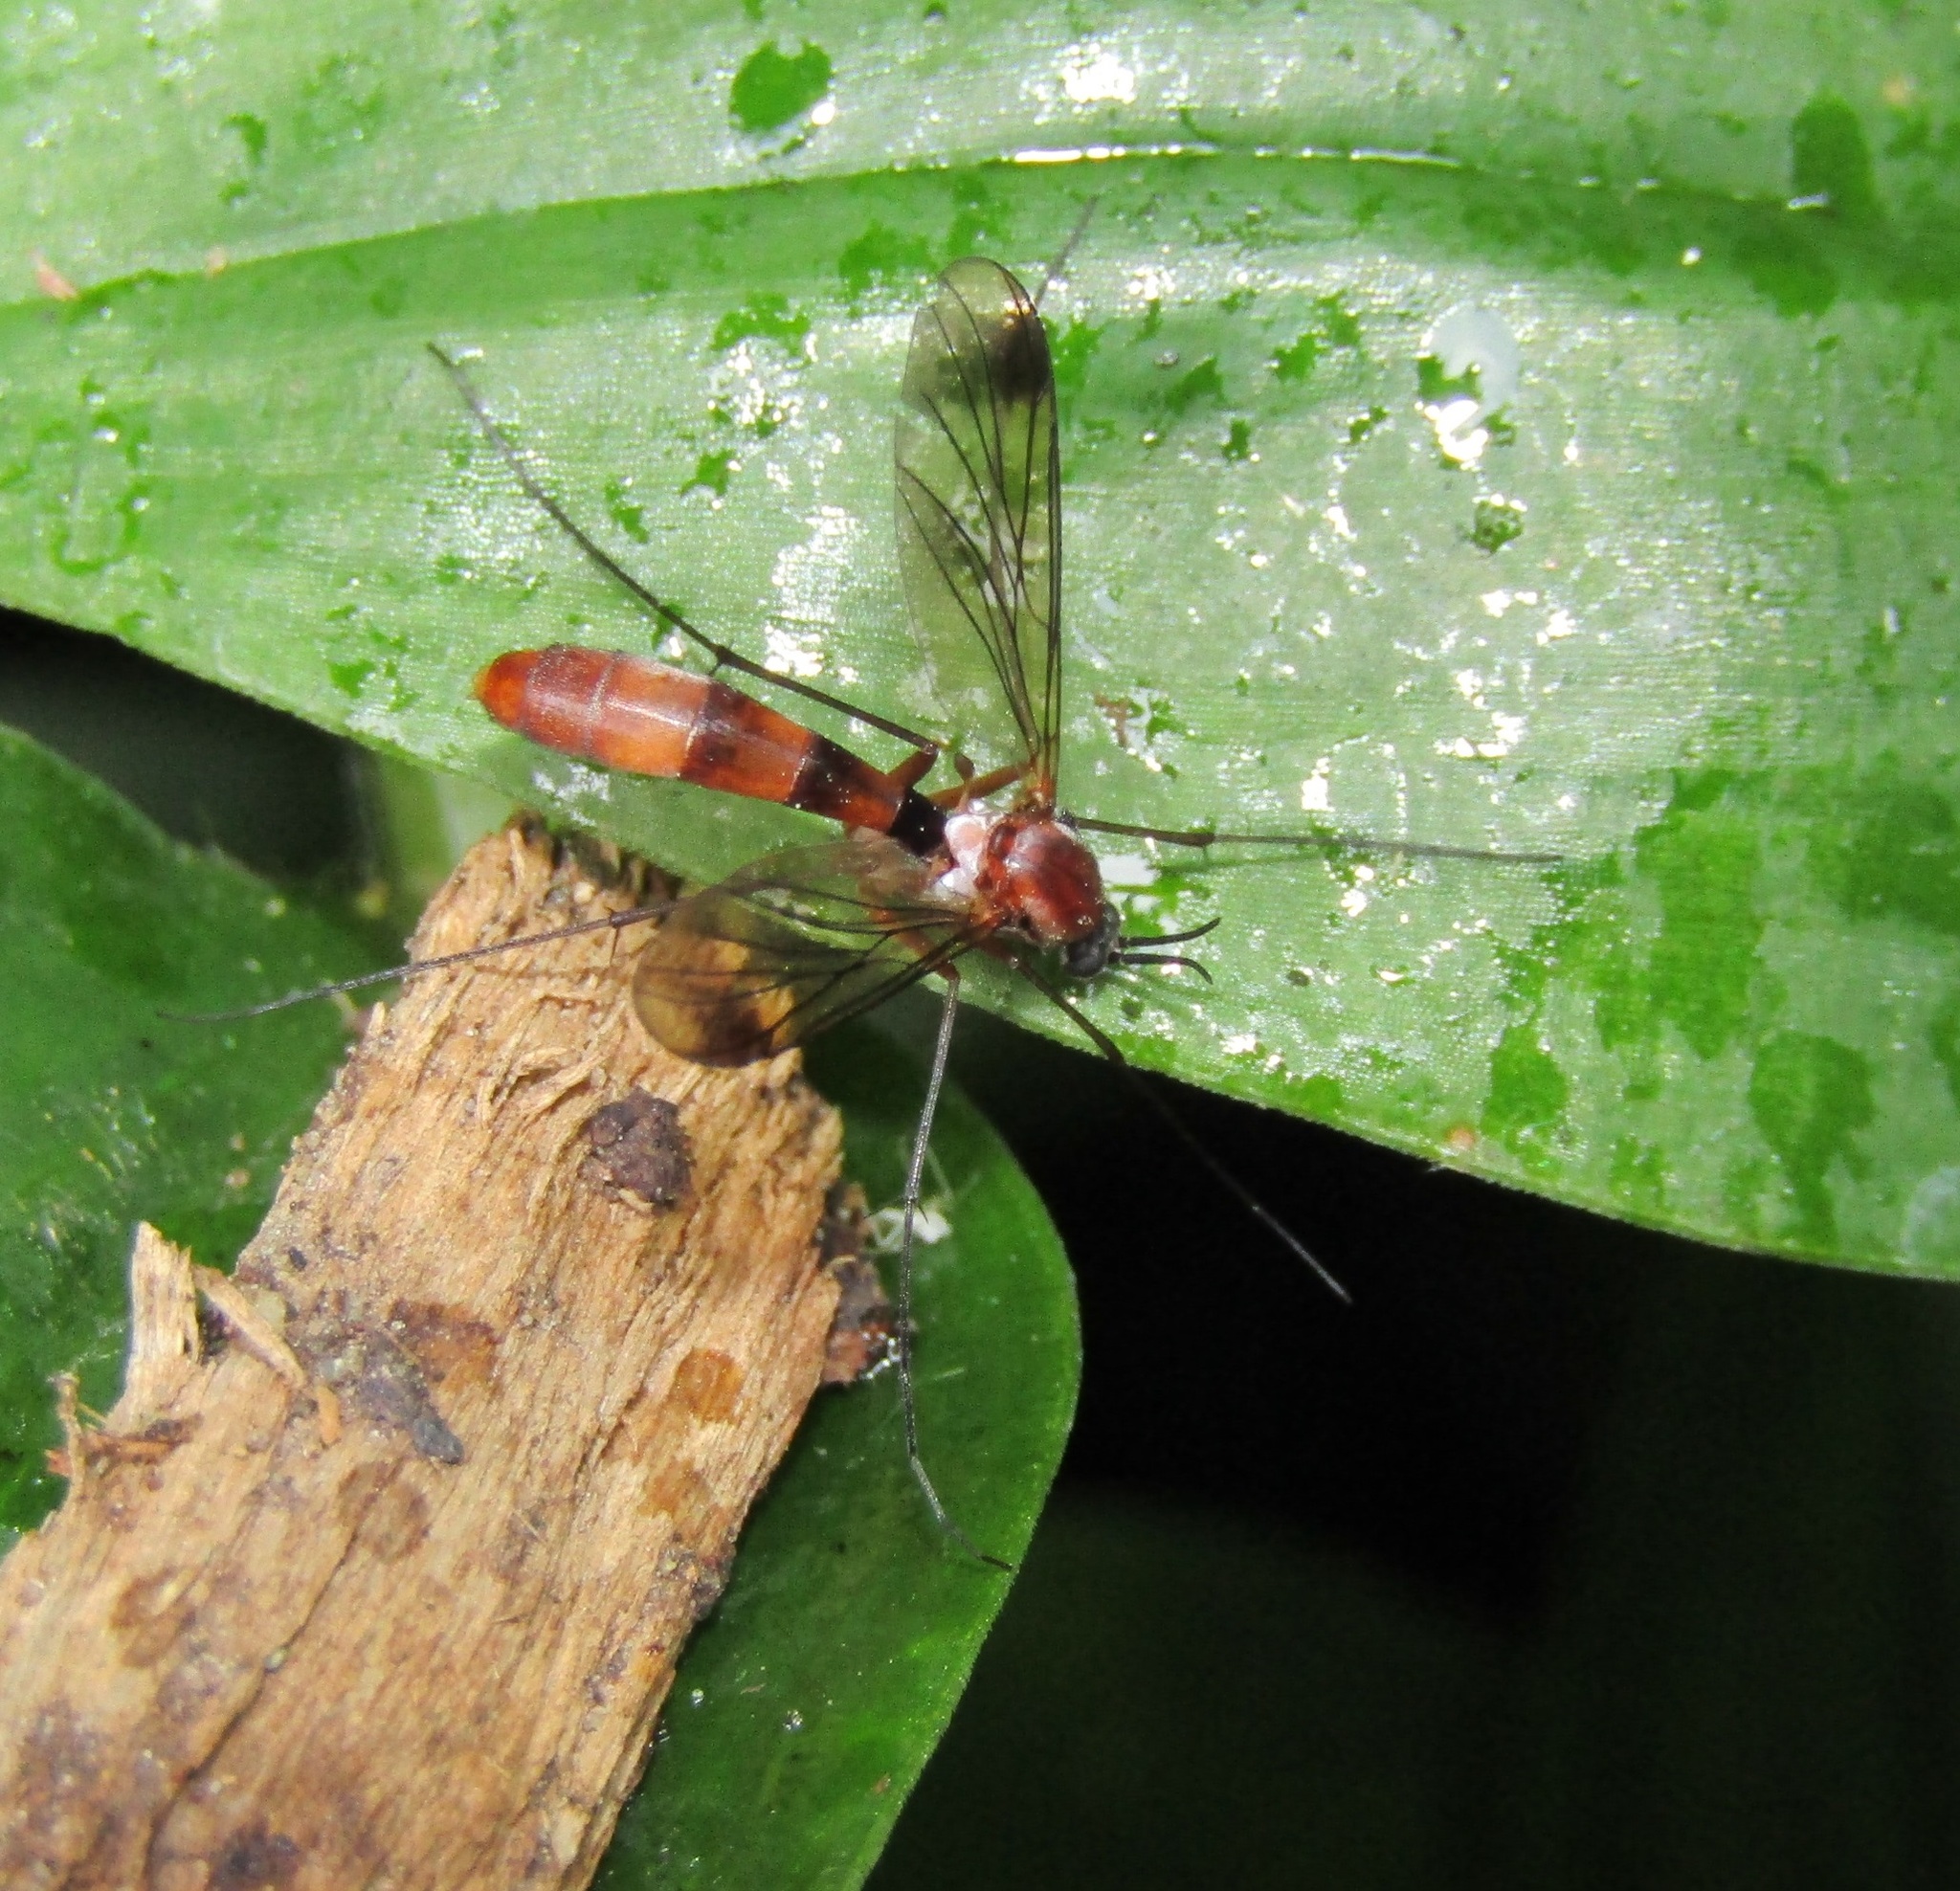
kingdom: Animalia
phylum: Arthropoda
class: Insecta
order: Diptera
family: Keroplatidae
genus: Isoneuromyia
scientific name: Isoneuromyia harrisi
